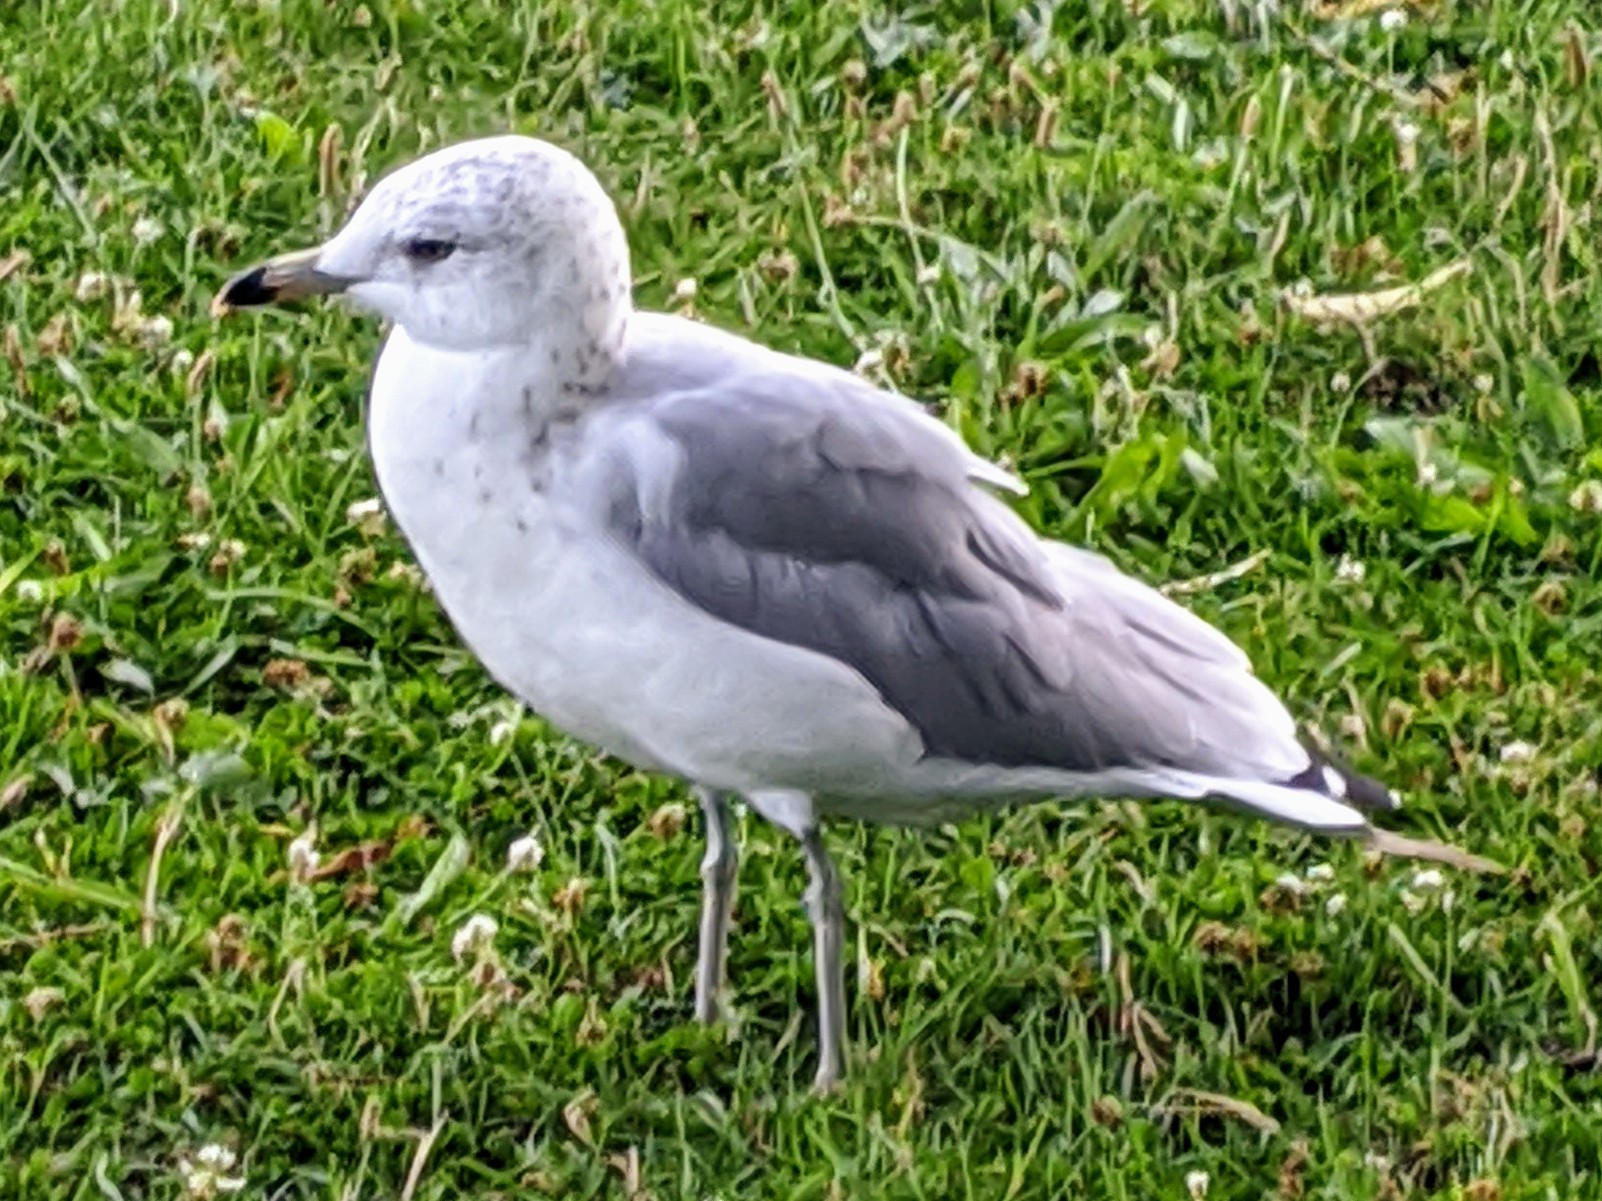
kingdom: Animalia
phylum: Chordata
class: Aves
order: Charadriiformes
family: Laridae
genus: Larus
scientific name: Larus delawarensis
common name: Ring-billed gull
